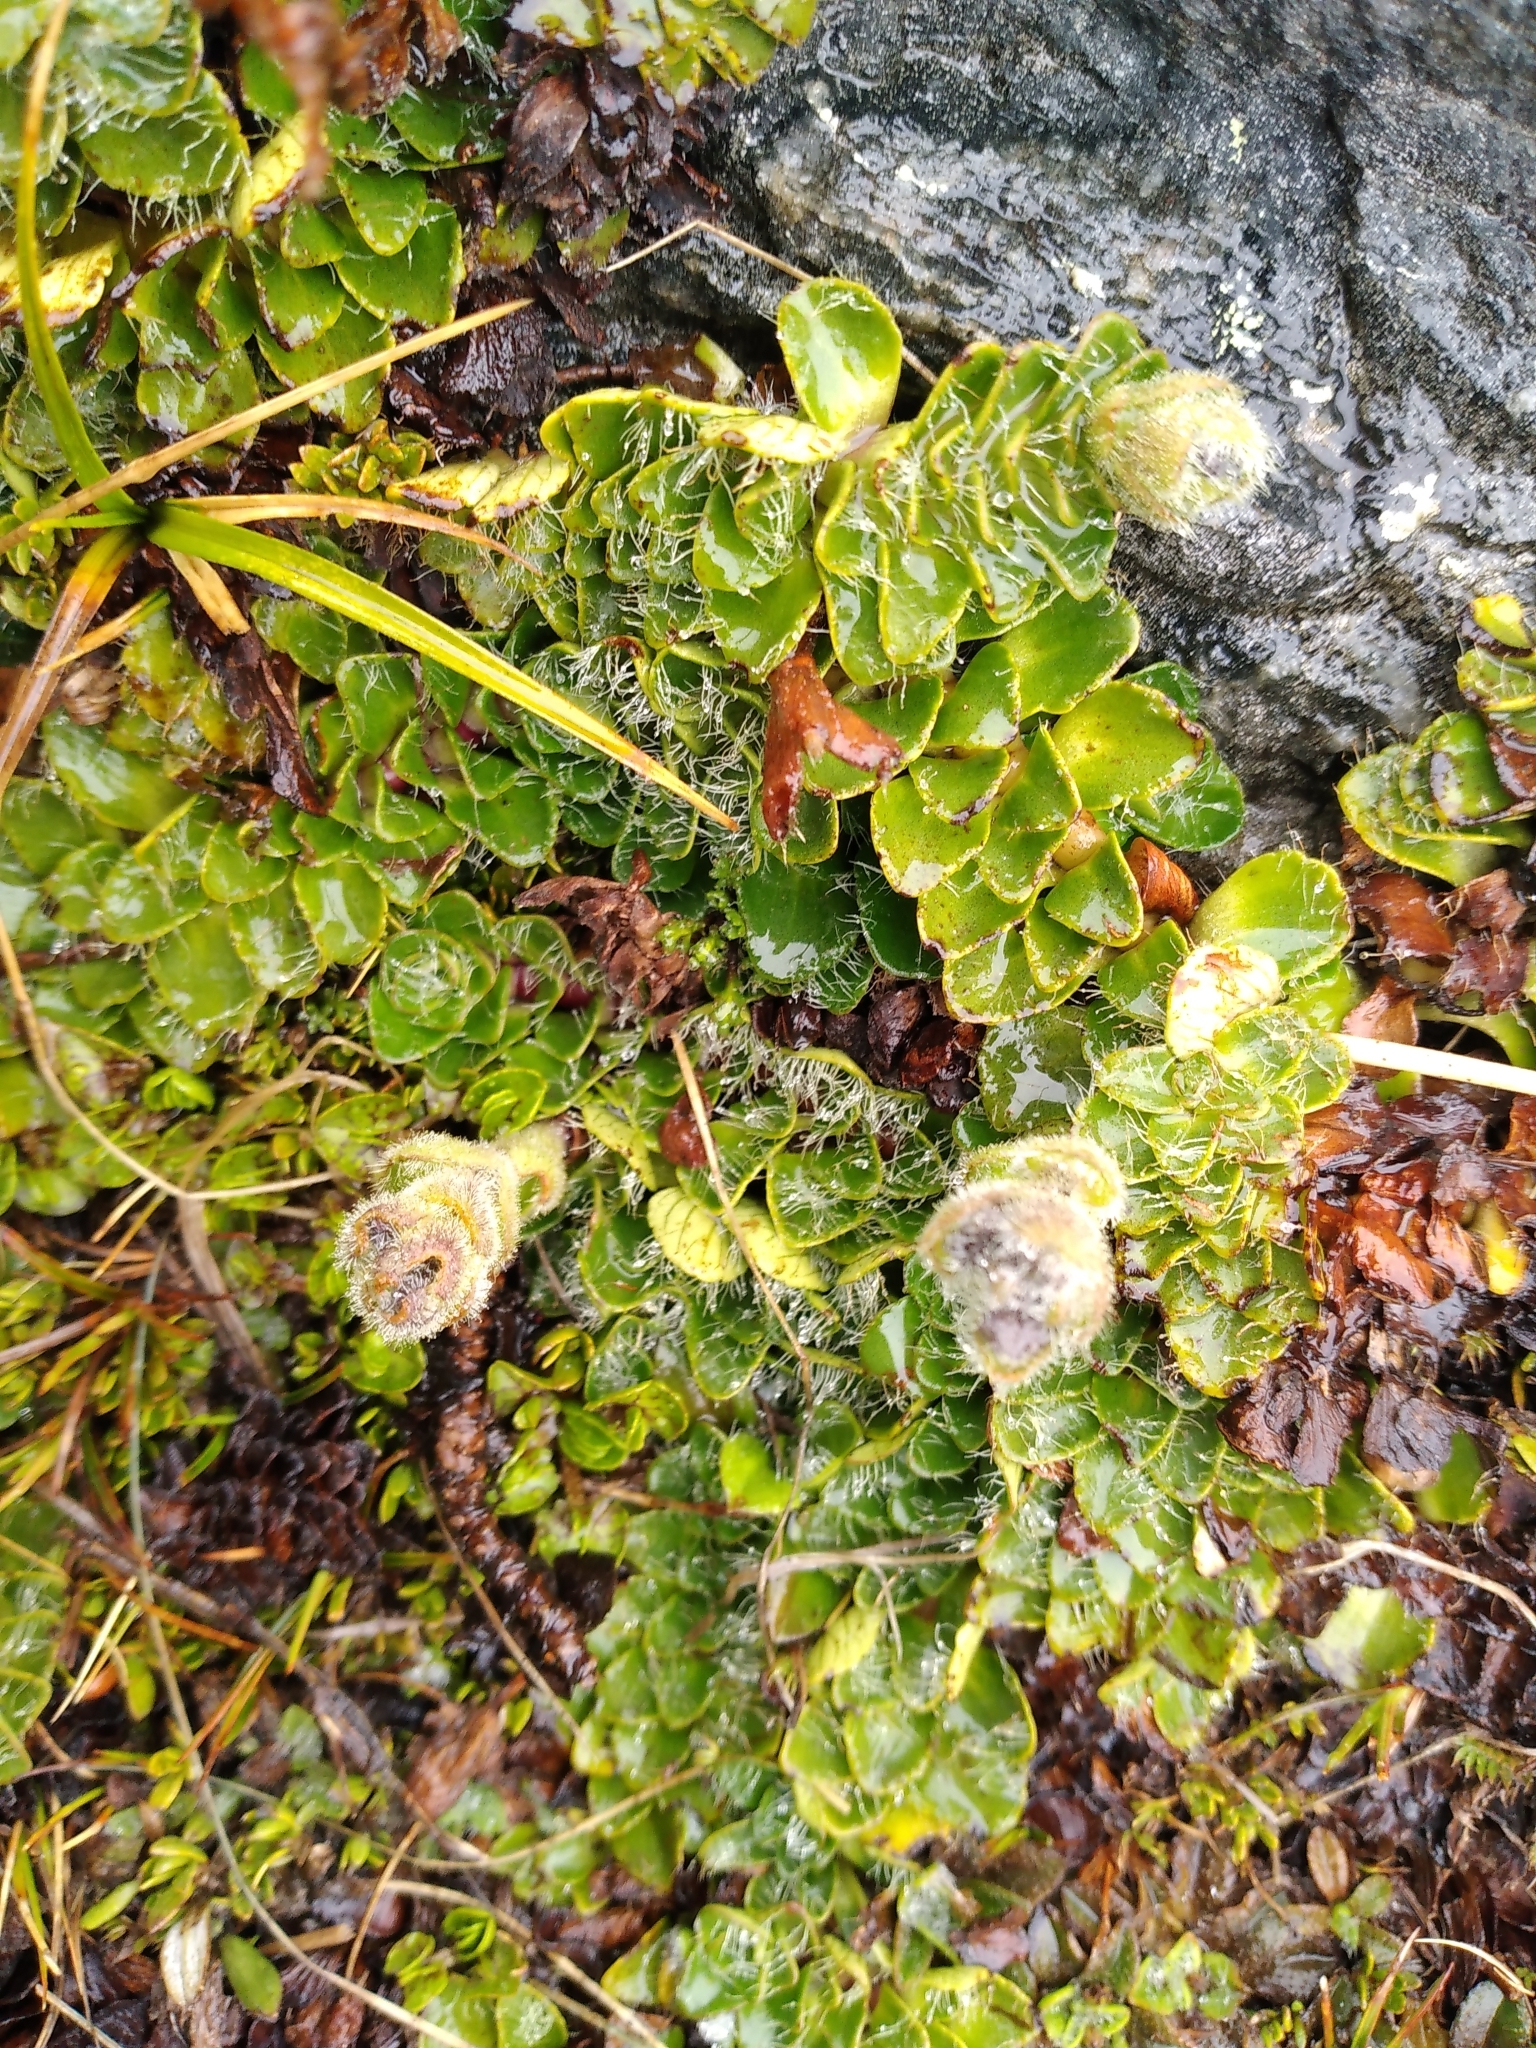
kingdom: Plantae
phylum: Tracheophyta
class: Magnoliopsida
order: Lamiales
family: Plantaginaceae
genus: Ourisia
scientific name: Ourisia glandulosa
